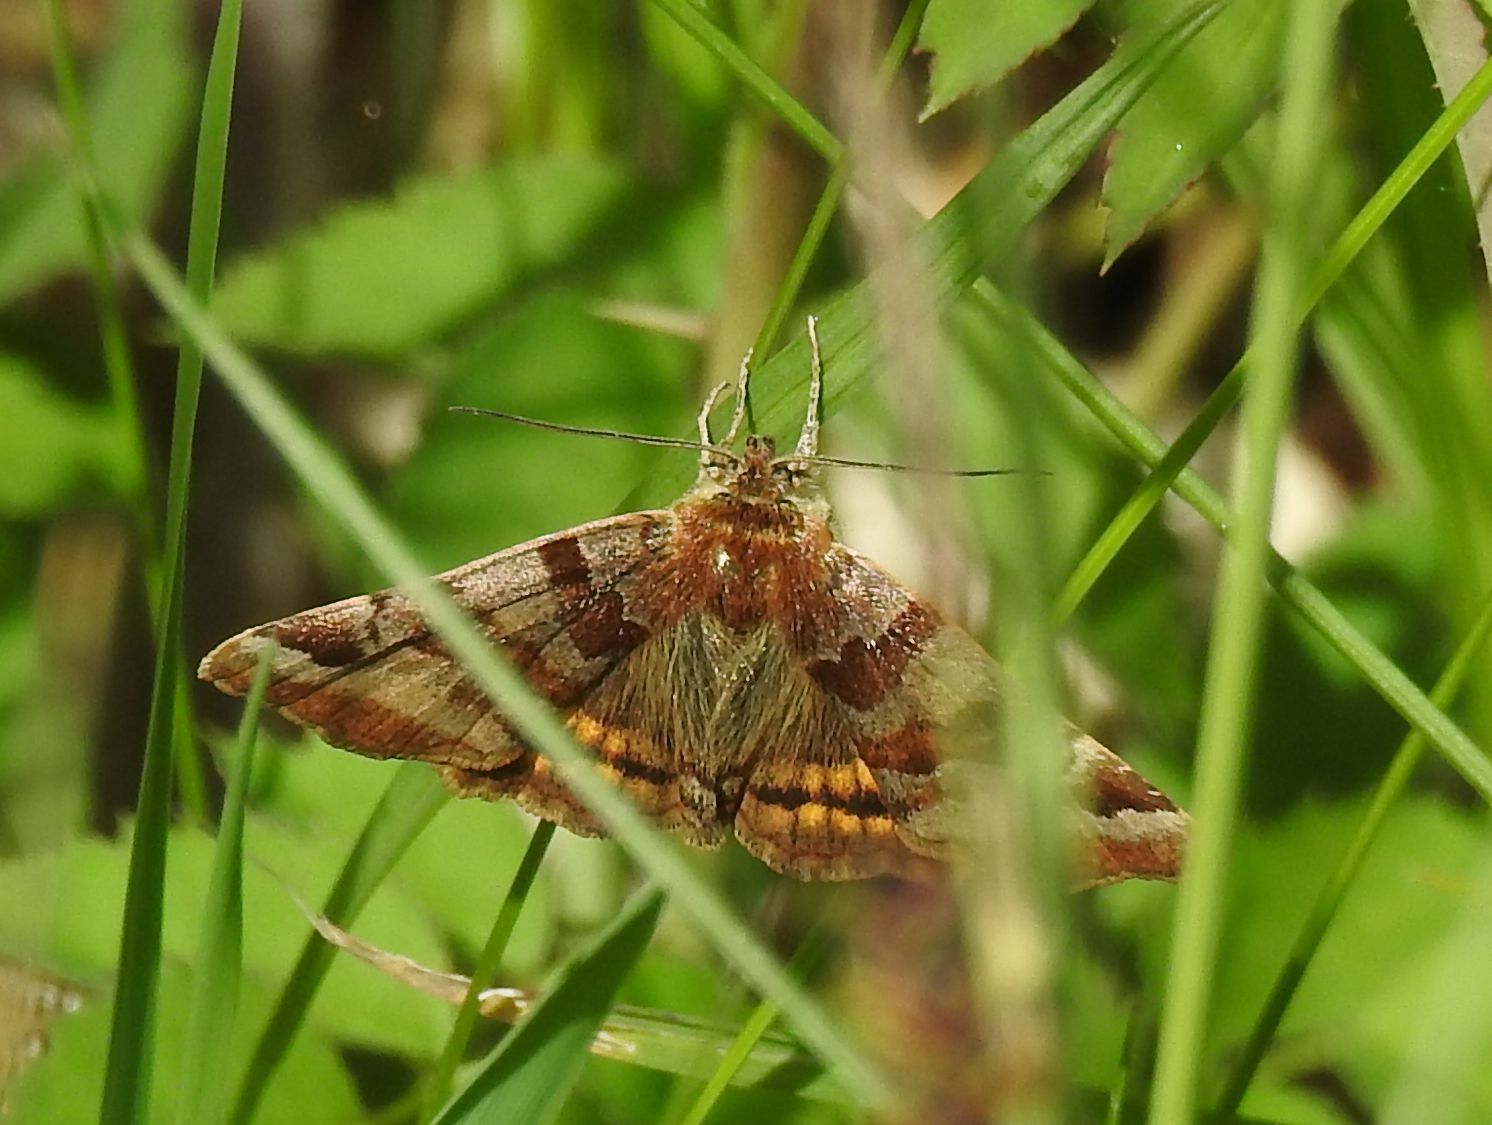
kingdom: Animalia
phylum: Arthropoda
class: Insecta
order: Lepidoptera
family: Erebidae
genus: Euclidia
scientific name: Euclidia glyphica
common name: Burnet companion
